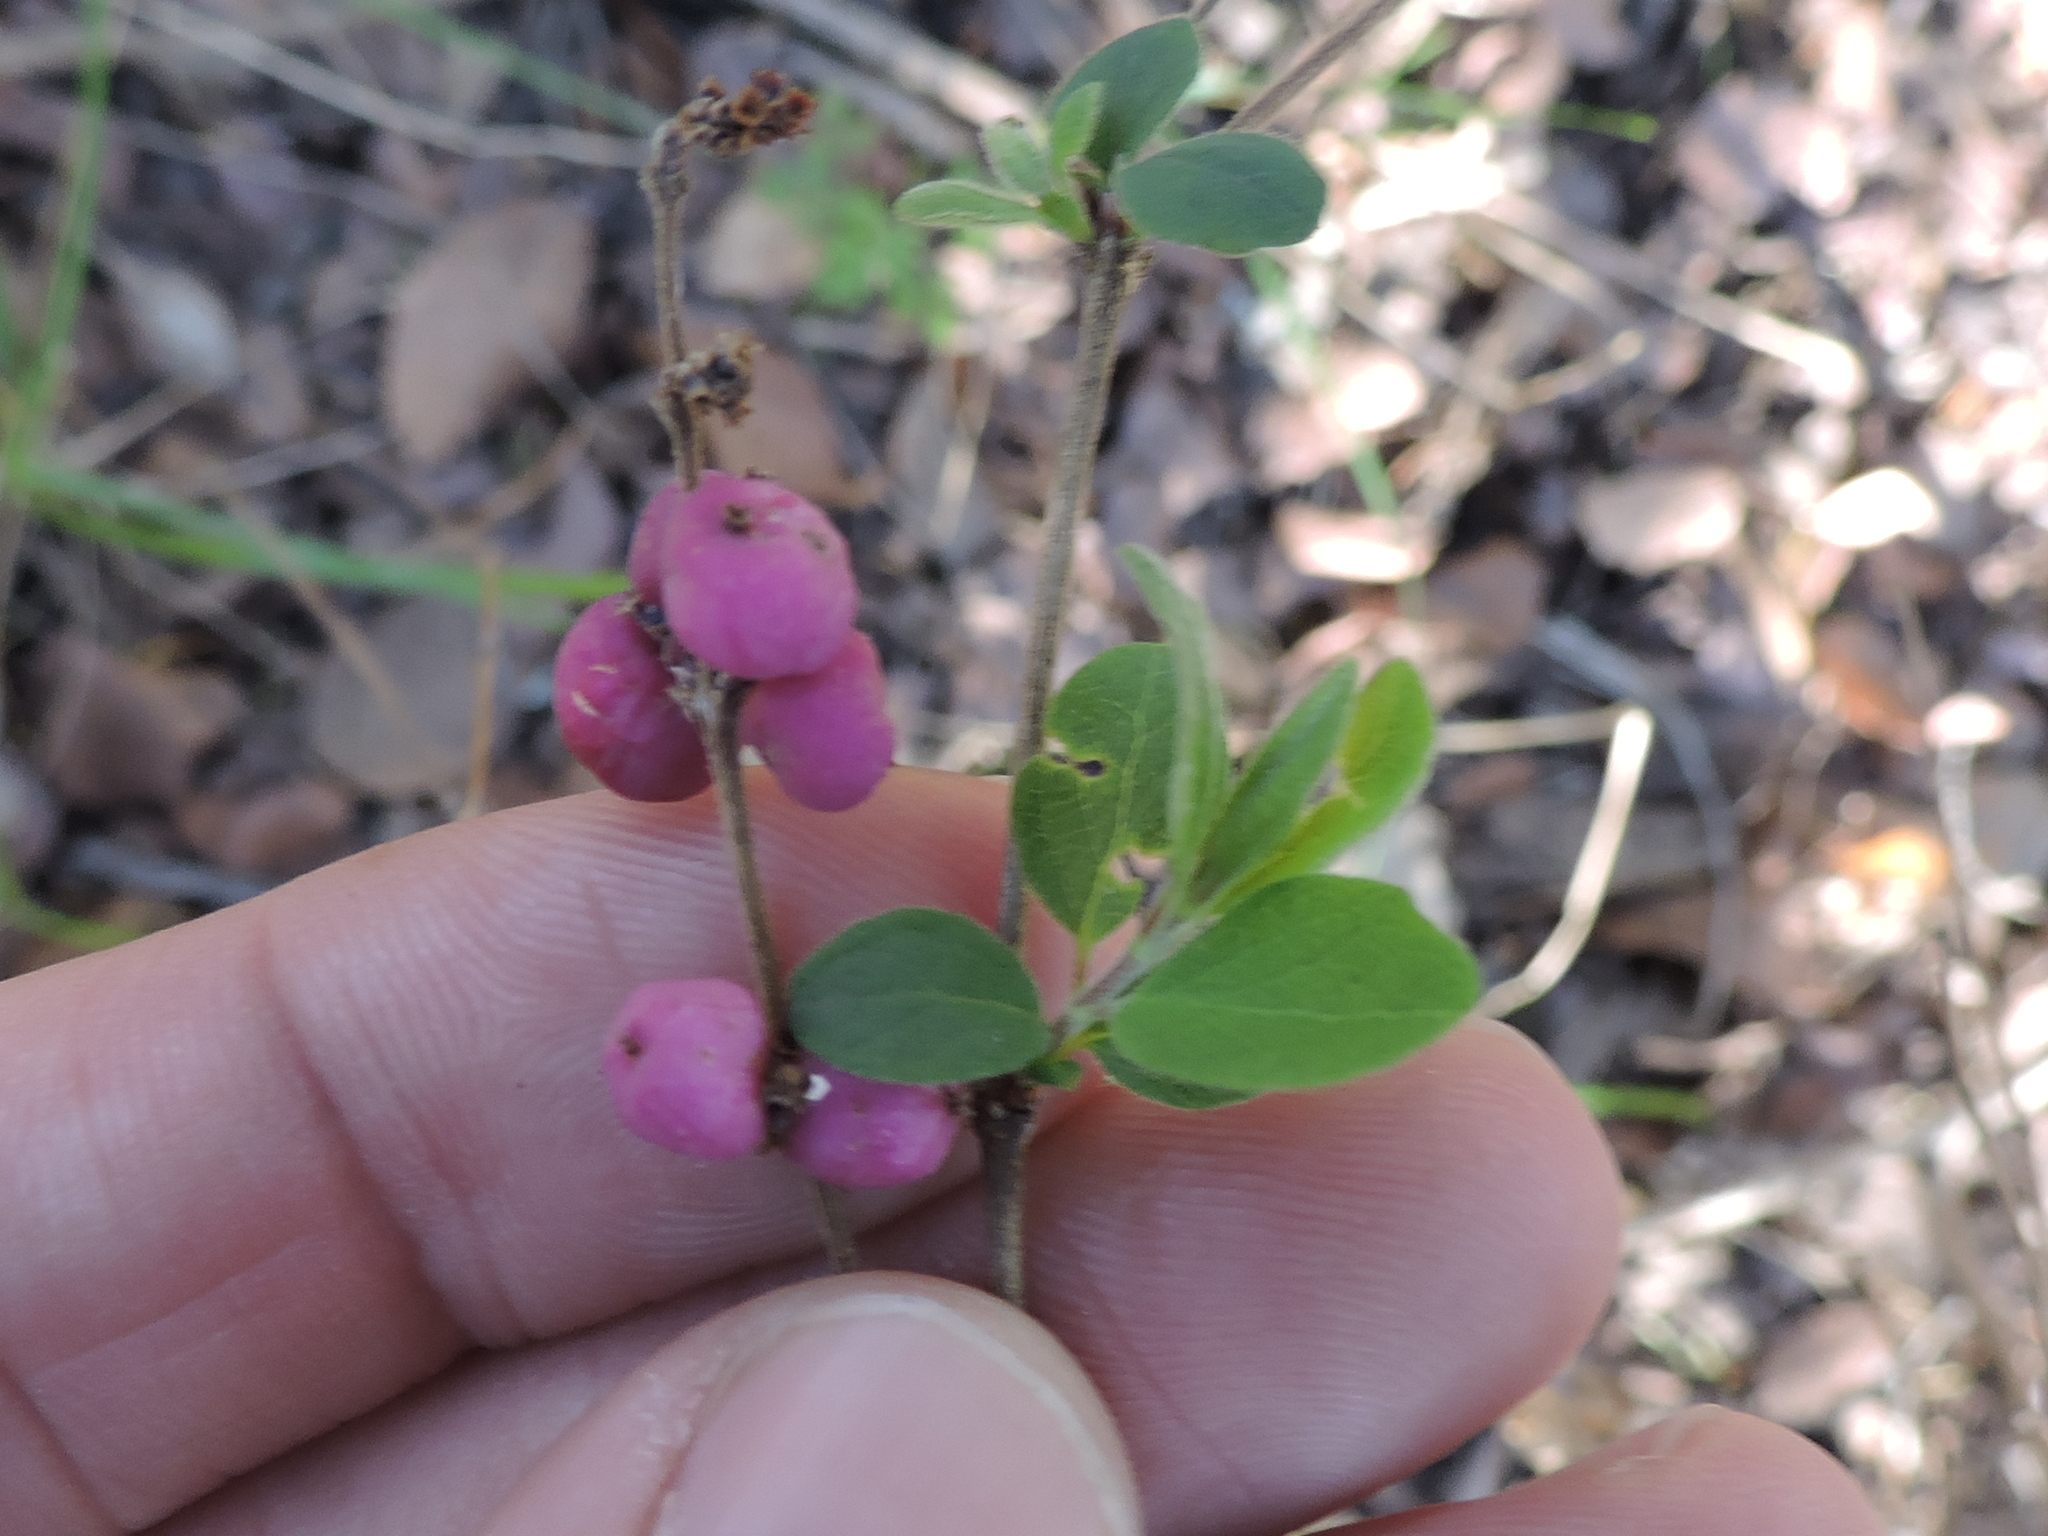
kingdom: Plantae
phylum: Tracheophyta
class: Magnoliopsida
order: Dipsacales
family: Caprifoliaceae
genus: Symphoricarpos
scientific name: Symphoricarpos orbiculatus
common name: Coralberry
